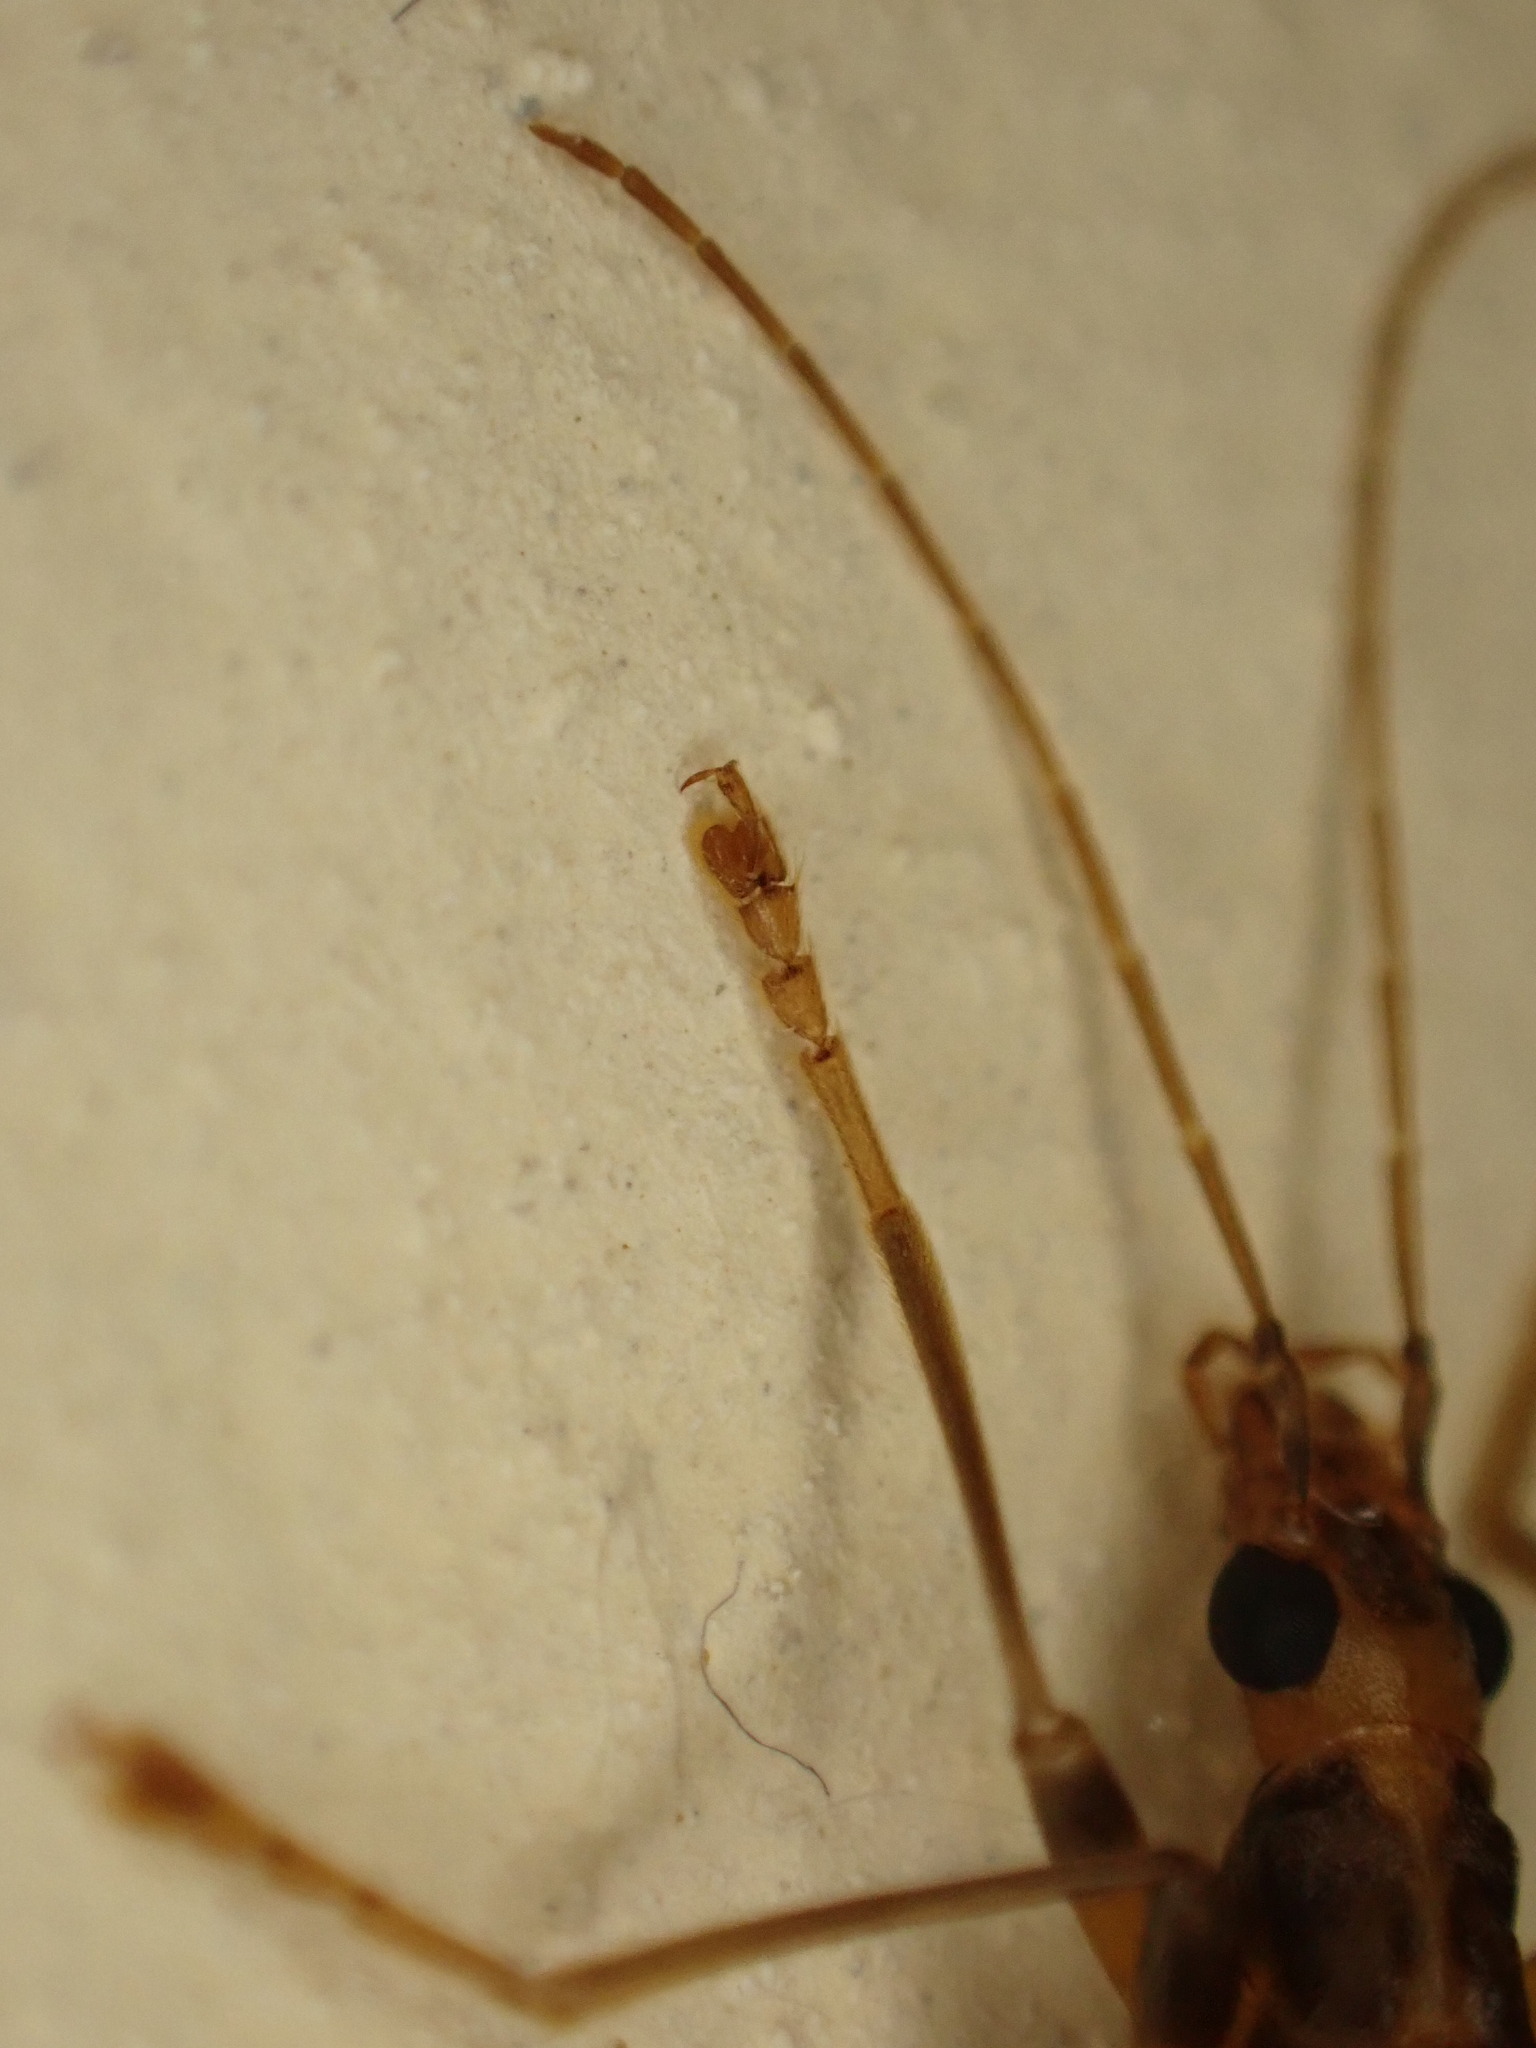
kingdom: Animalia
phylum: Arthropoda
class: Insecta
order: Coleoptera
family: Oedemeridae
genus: Oedemera
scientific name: Oedemera femoralis
